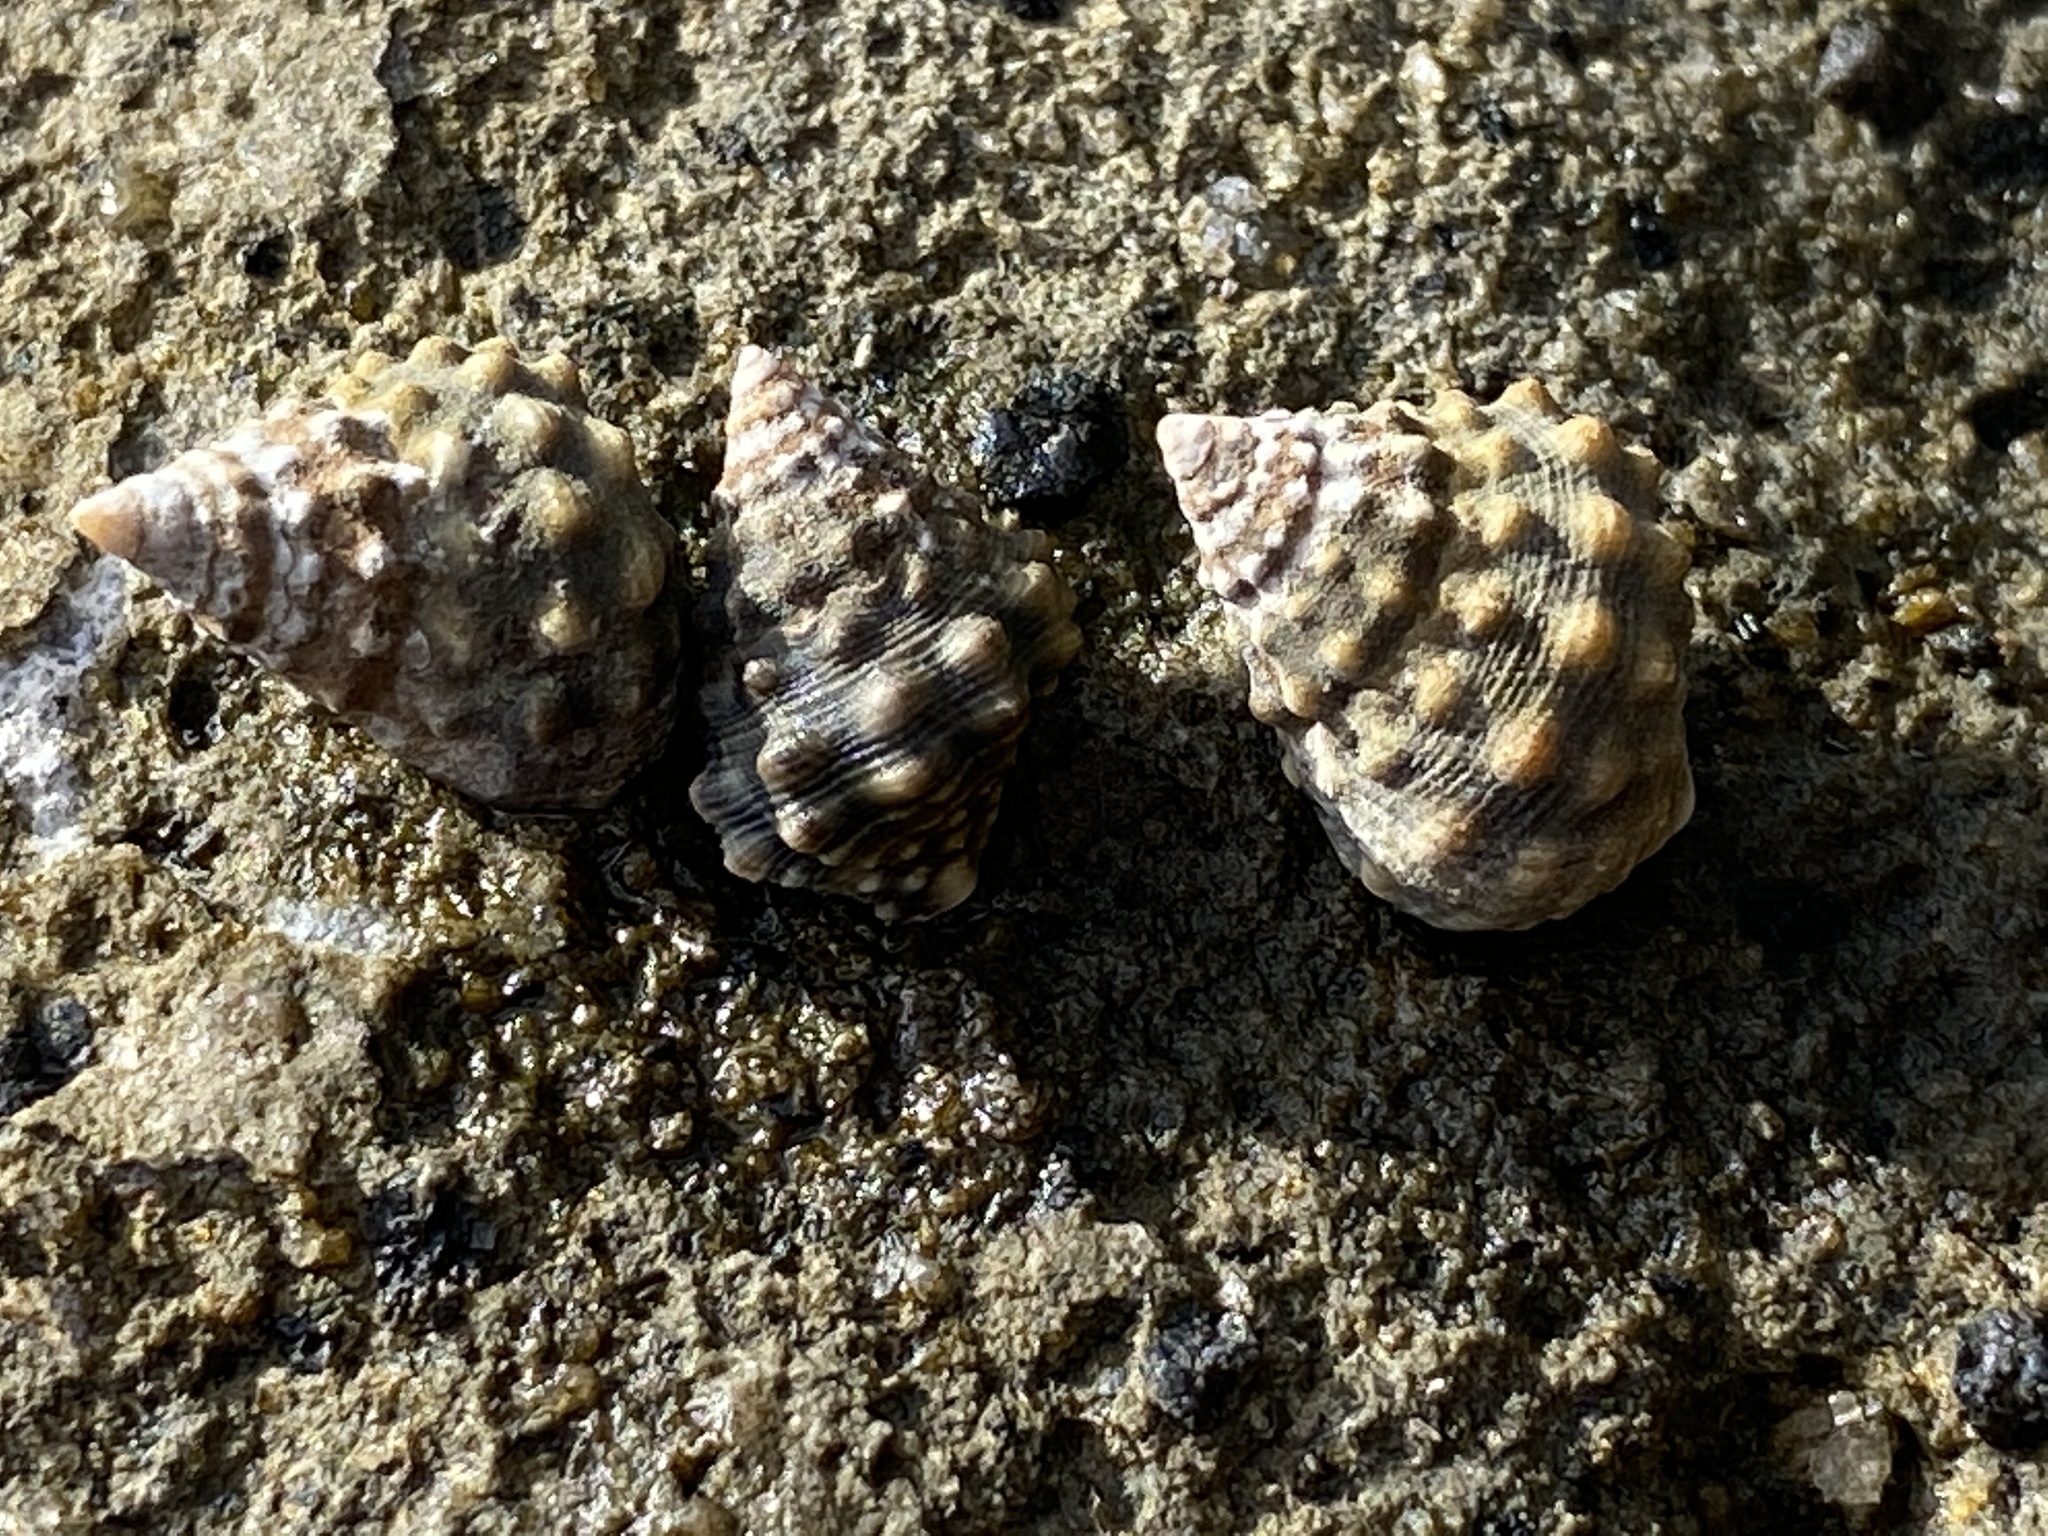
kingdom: Animalia
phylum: Mollusca
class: Gastropoda
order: Littorinimorpha
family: Littorinidae
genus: Echinolittorina
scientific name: Echinolittorina tuberculata
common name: Common periwinkle
